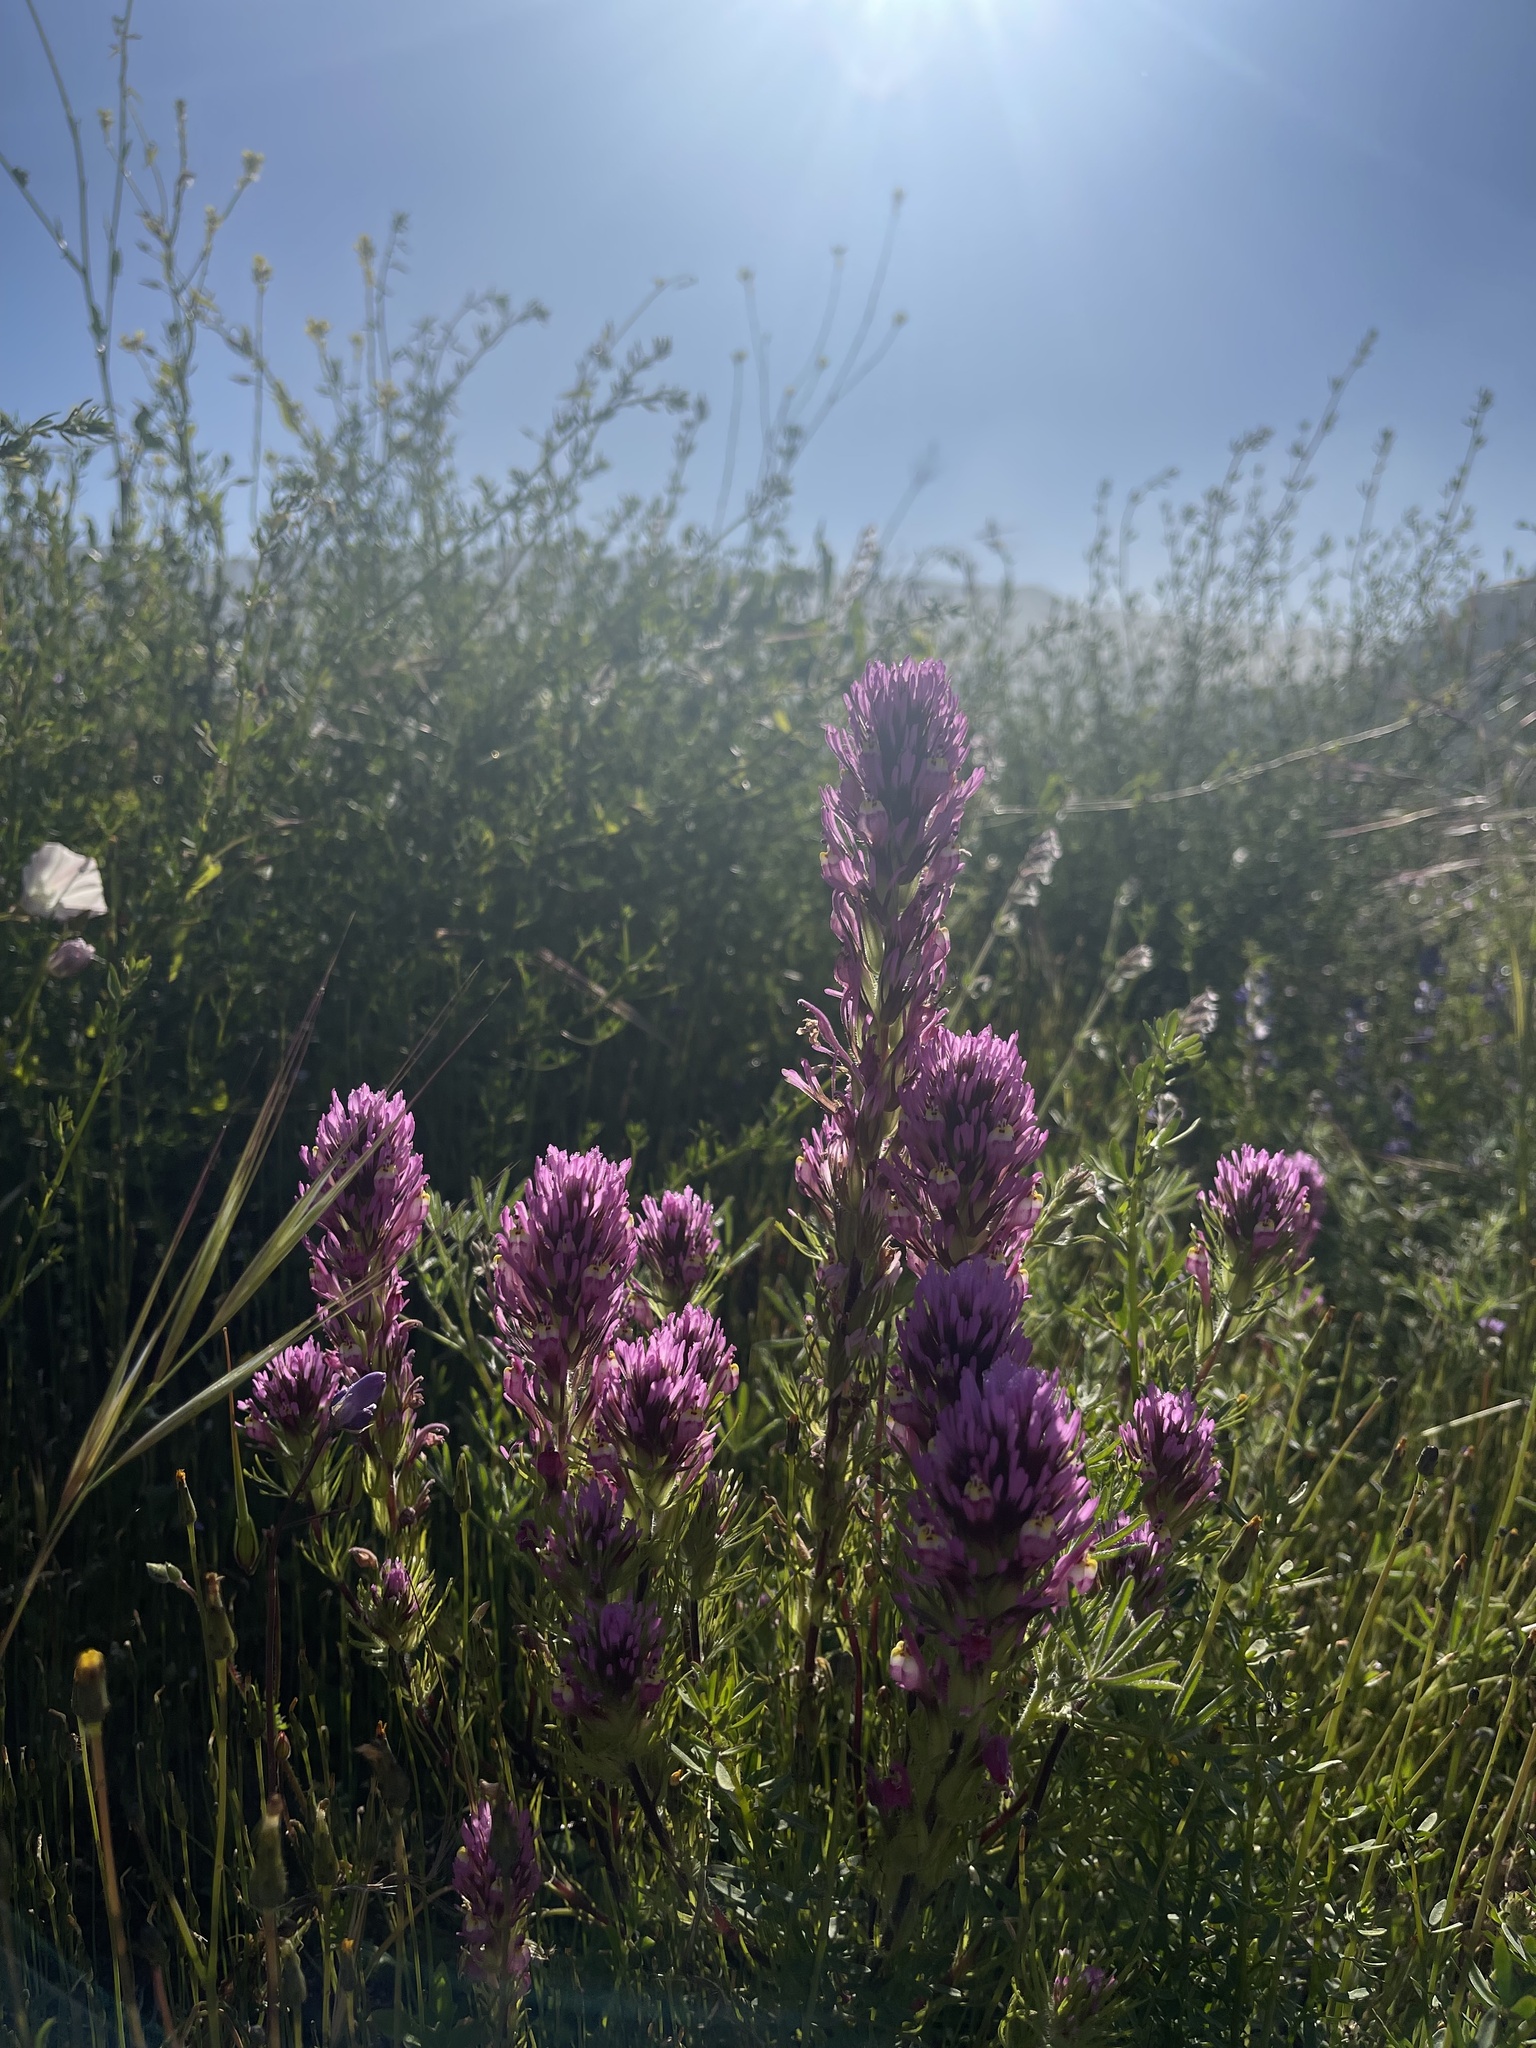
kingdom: Plantae
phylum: Tracheophyta
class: Magnoliopsida
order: Lamiales
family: Orobanchaceae
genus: Castilleja
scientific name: Castilleja exserta
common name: Purple owl-clover
